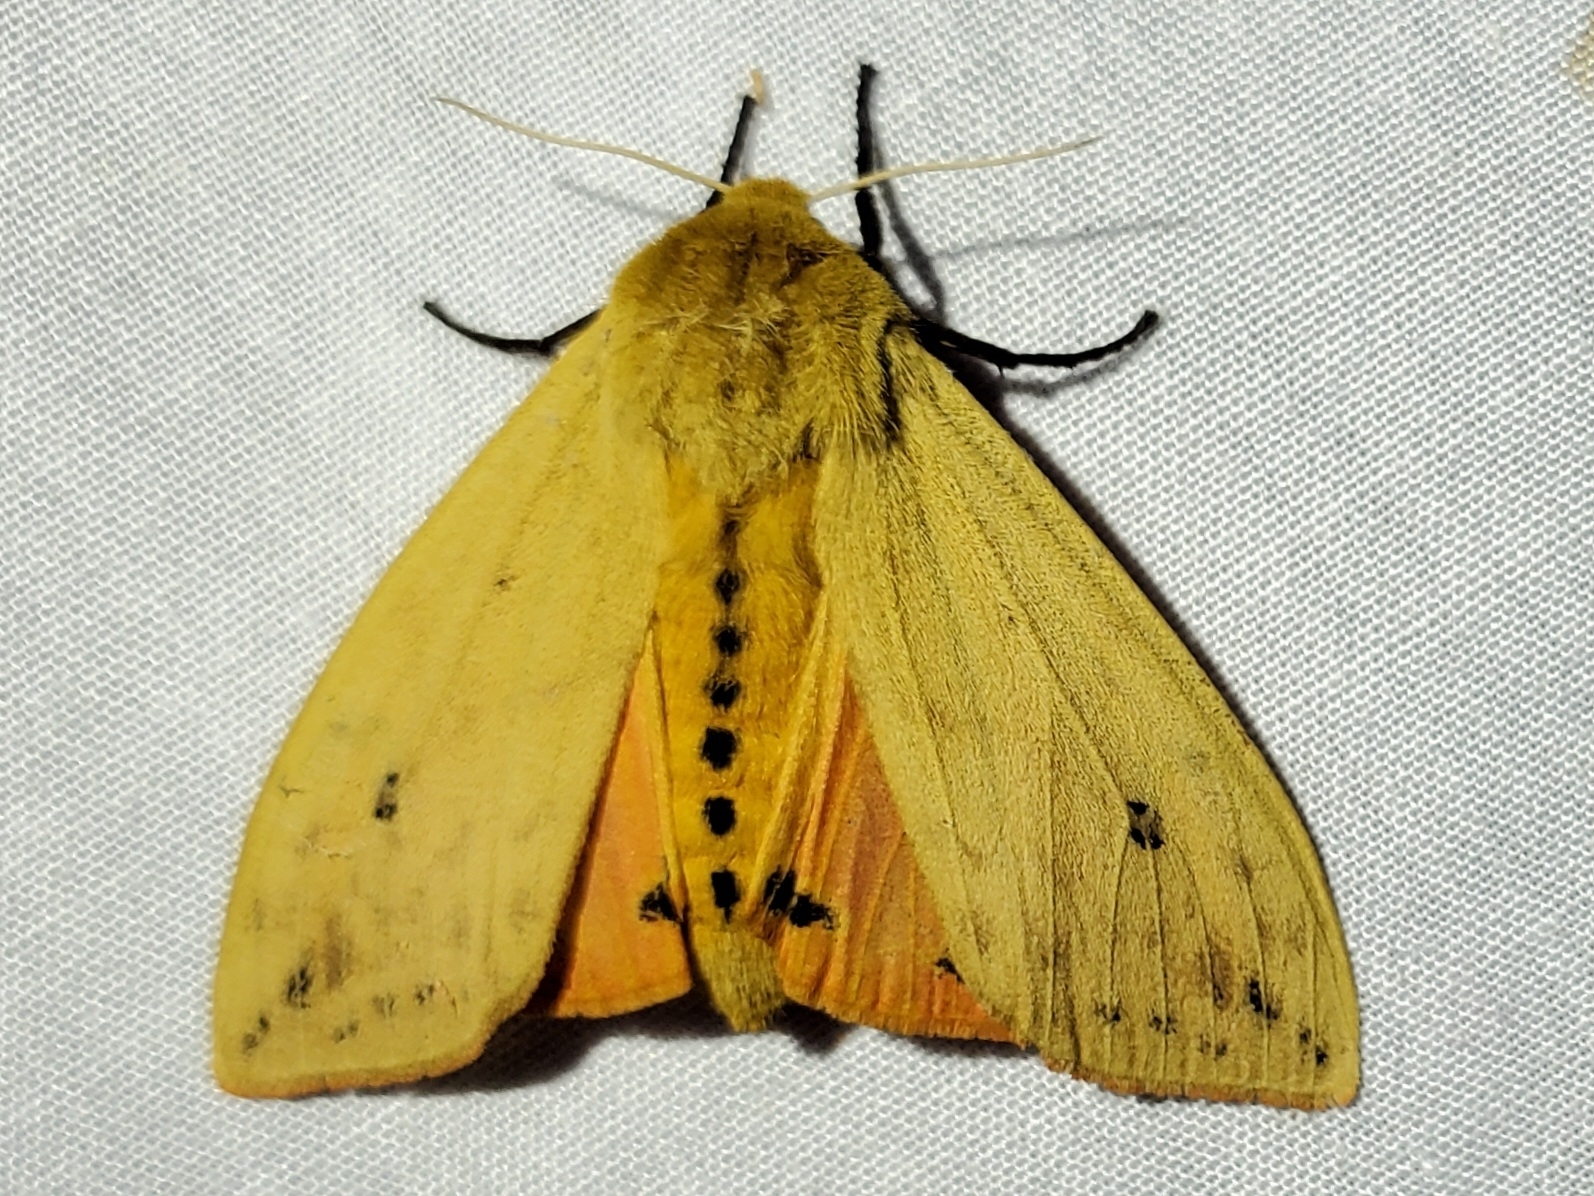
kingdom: Animalia
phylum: Arthropoda
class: Insecta
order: Lepidoptera
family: Erebidae
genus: Pyrrharctia
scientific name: Pyrrharctia isabella
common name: Isabella tiger moth
